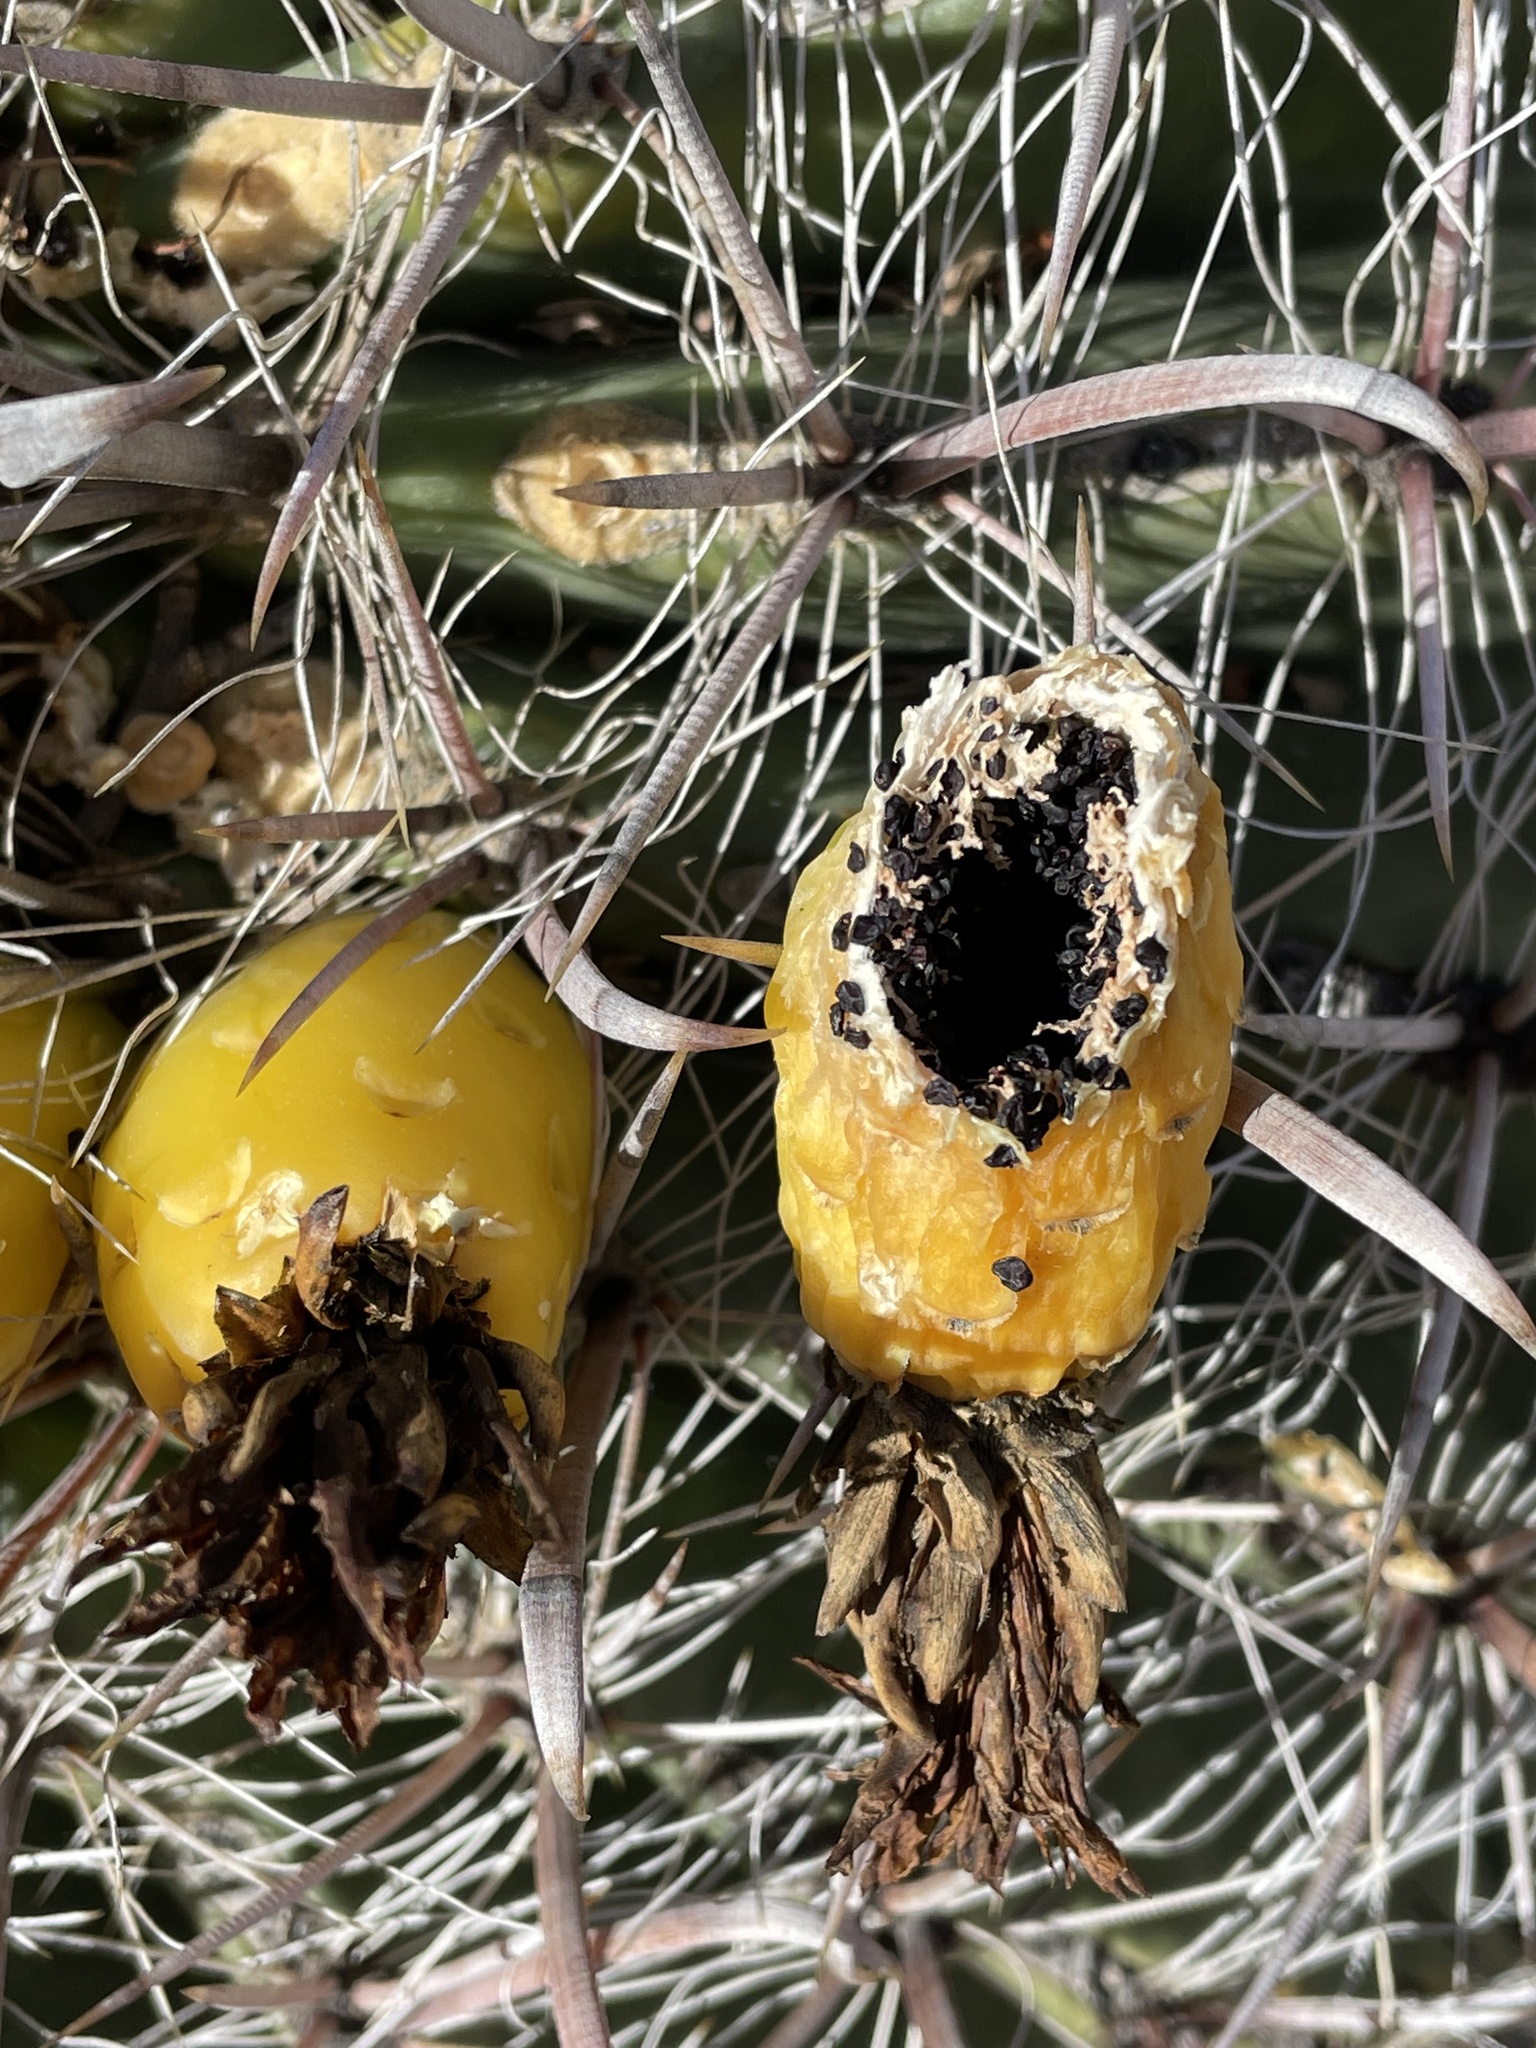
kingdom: Plantae
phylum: Tracheophyta
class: Magnoliopsida
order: Caryophyllales
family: Cactaceae
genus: Ferocactus
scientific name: Ferocactus wislizeni
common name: Candy barrel cactus
